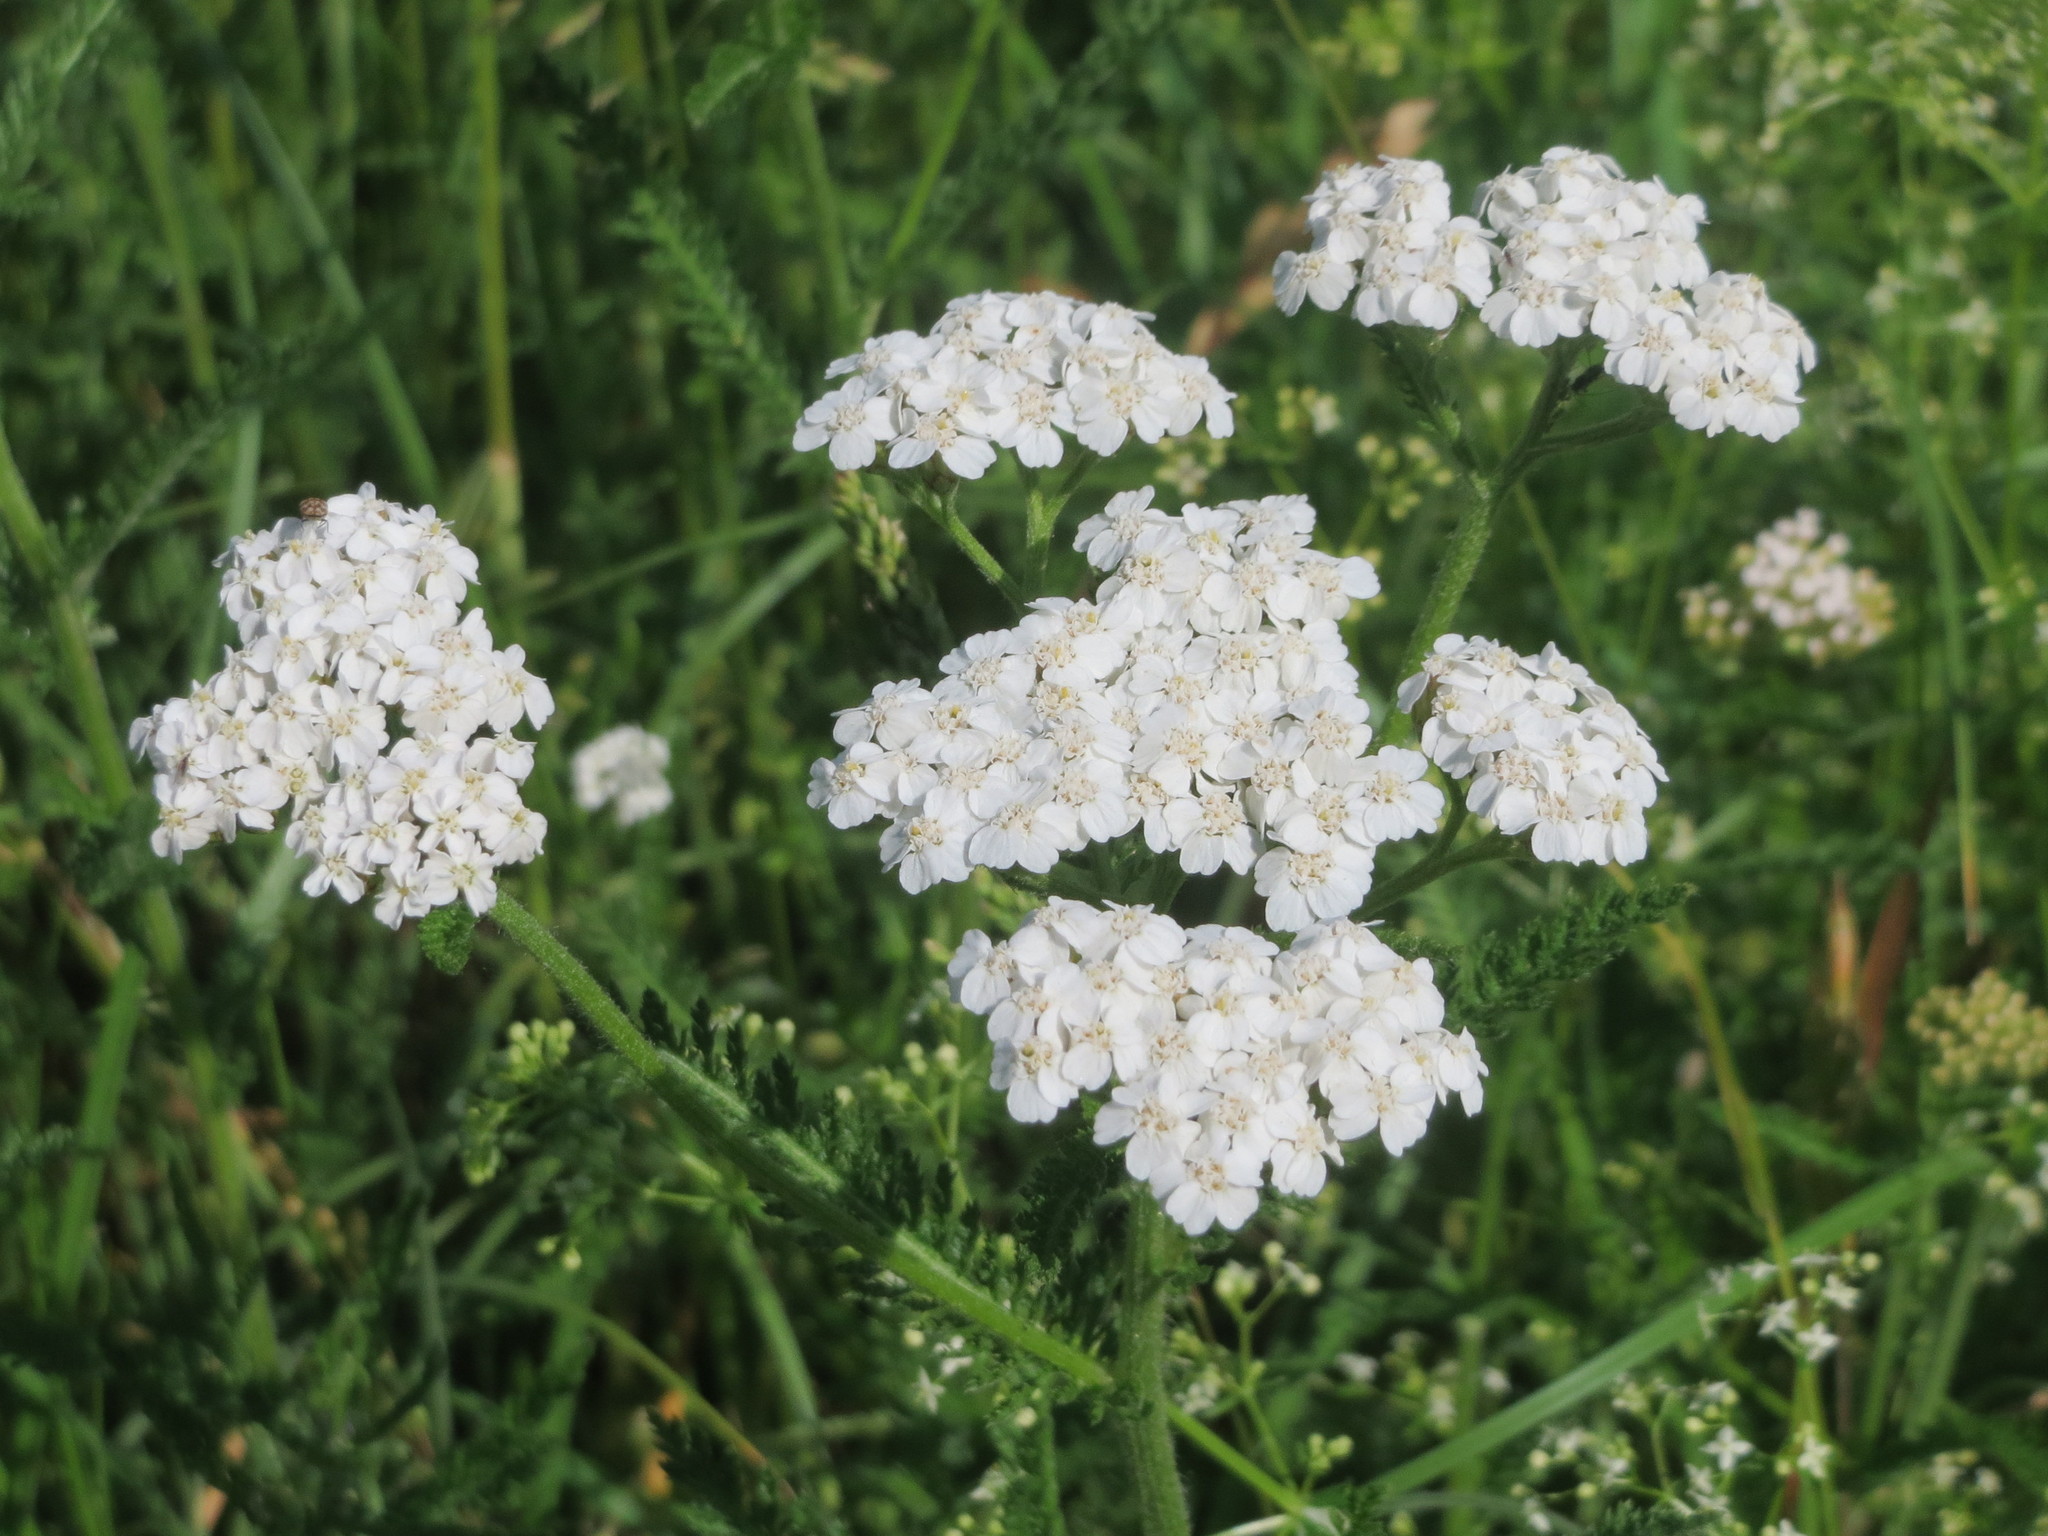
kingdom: Plantae
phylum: Tracheophyta
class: Magnoliopsida
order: Asterales
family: Asteraceae
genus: Achillea
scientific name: Achillea millefolium
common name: Yarrow
